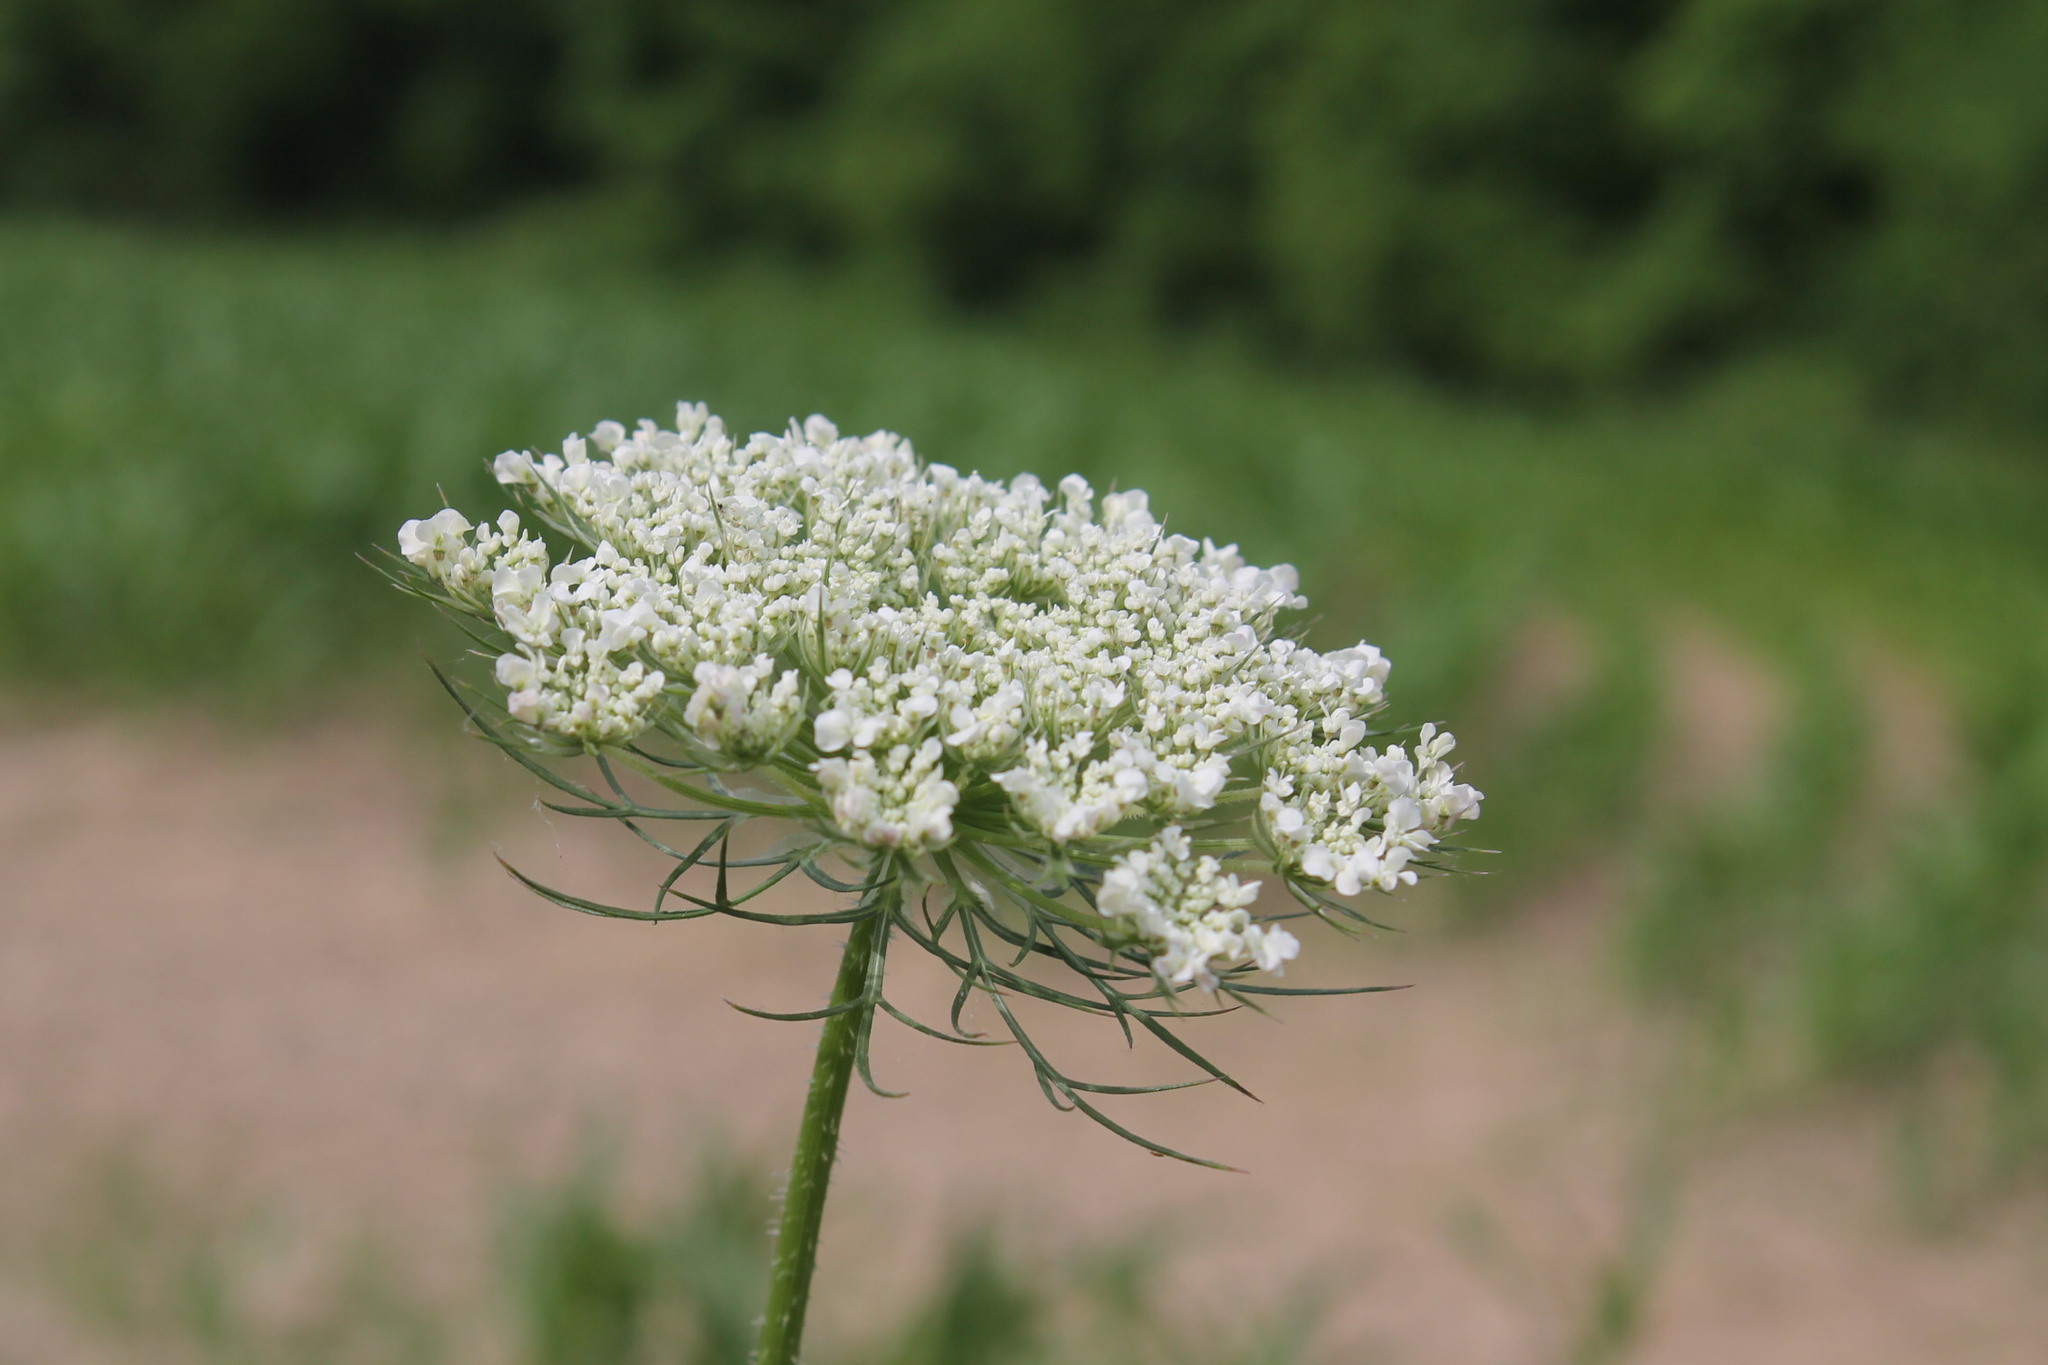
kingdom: Plantae
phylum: Tracheophyta
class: Magnoliopsida
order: Apiales
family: Apiaceae
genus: Daucus
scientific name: Daucus carota
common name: Wild carrot
